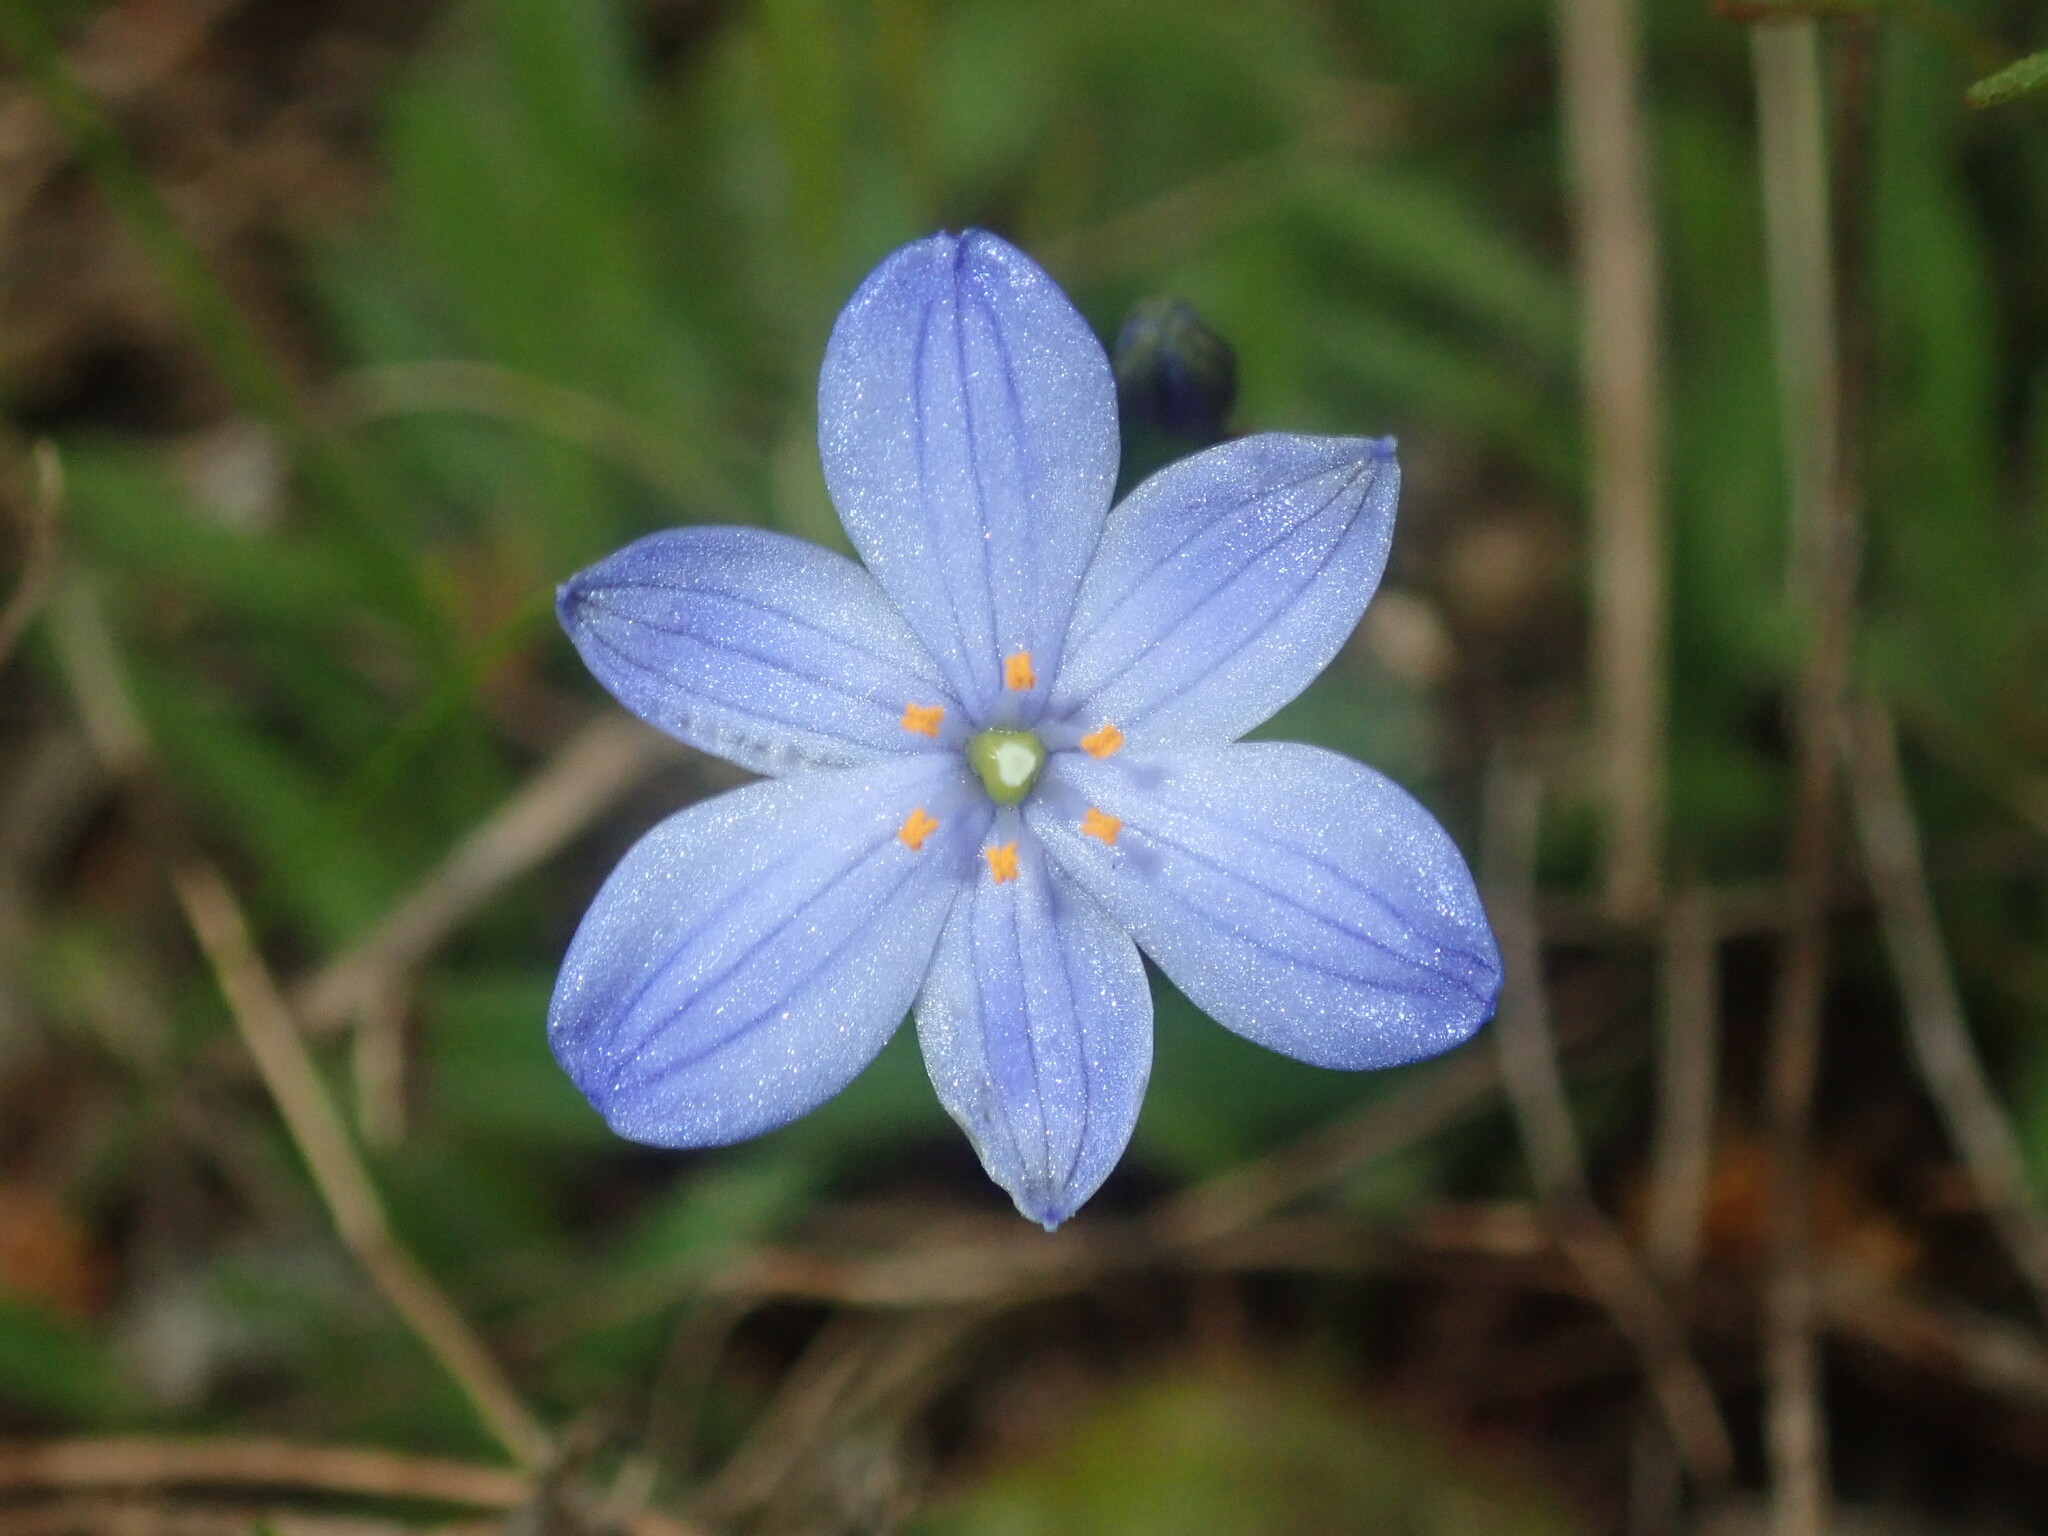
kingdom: Plantae
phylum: Tracheophyta
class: Liliopsida
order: Asparagales
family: Asphodelaceae
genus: Chamaescilla
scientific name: Chamaescilla corymbosa
